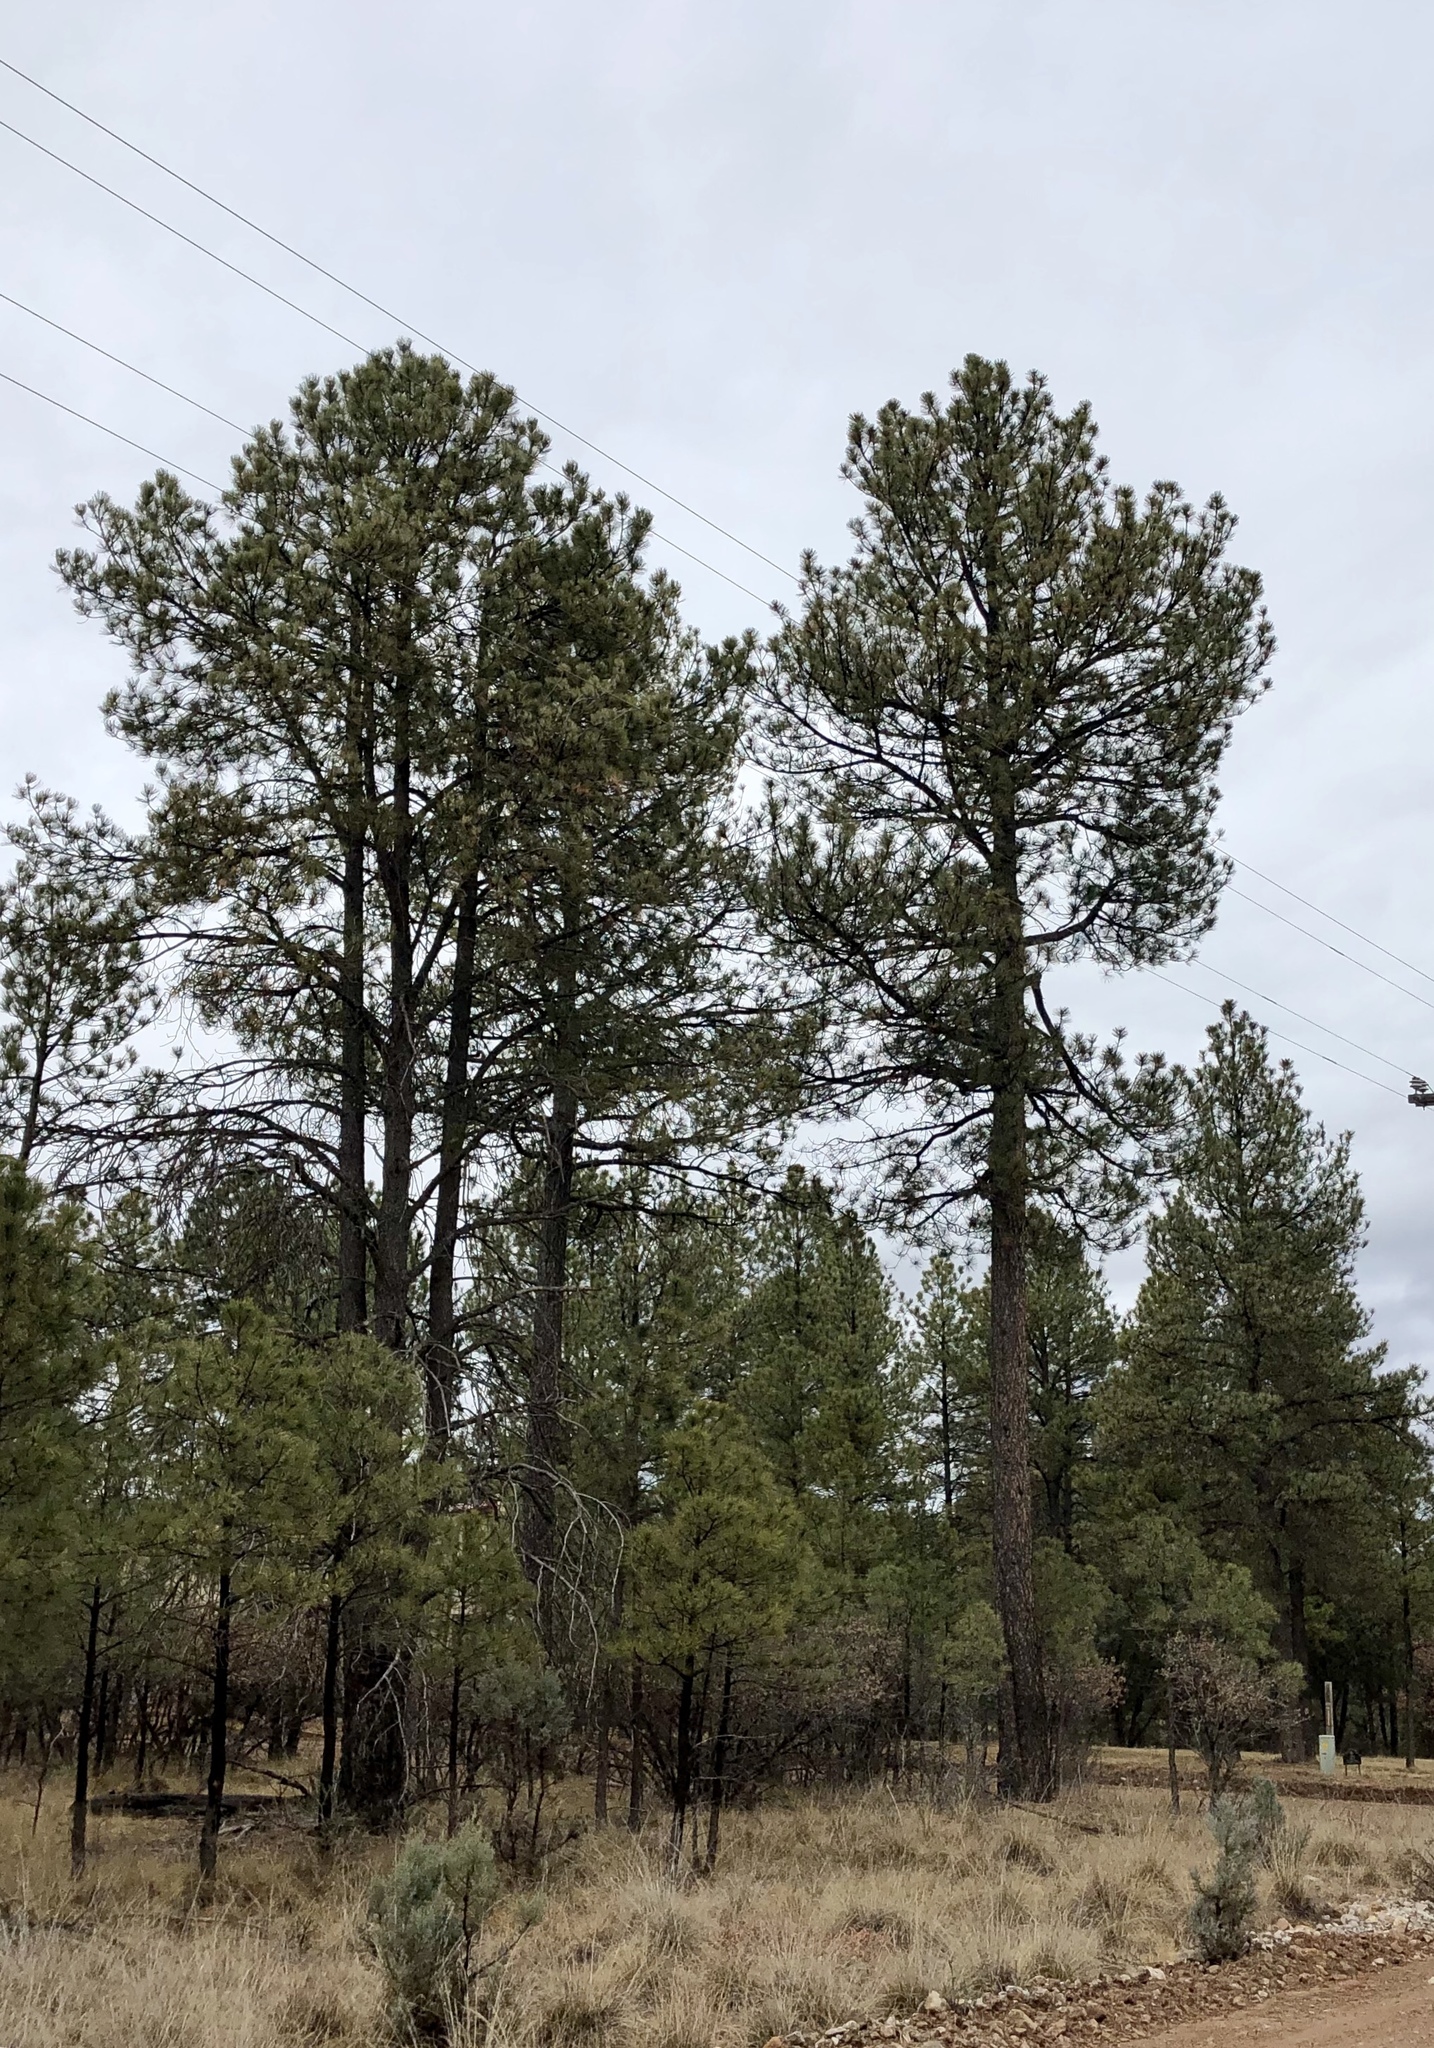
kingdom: Plantae
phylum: Tracheophyta
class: Pinopsida
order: Pinales
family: Pinaceae
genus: Pinus
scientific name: Pinus ponderosa
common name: Western yellow-pine
